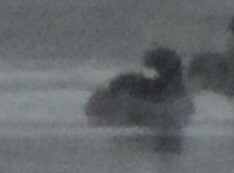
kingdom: Animalia
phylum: Chordata
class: Aves
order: Anseriformes
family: Anatidae
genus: Bucephala
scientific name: Bucephala albeola
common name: Bufflehead
